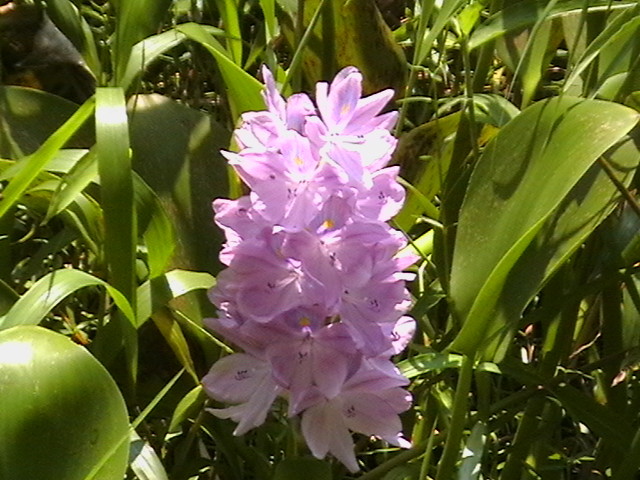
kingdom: Plantae
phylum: Tracheophyta
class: Liliopsida
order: Commelinales
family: Pontederiaceae
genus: Pontederia
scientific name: Pontederia crassipes
